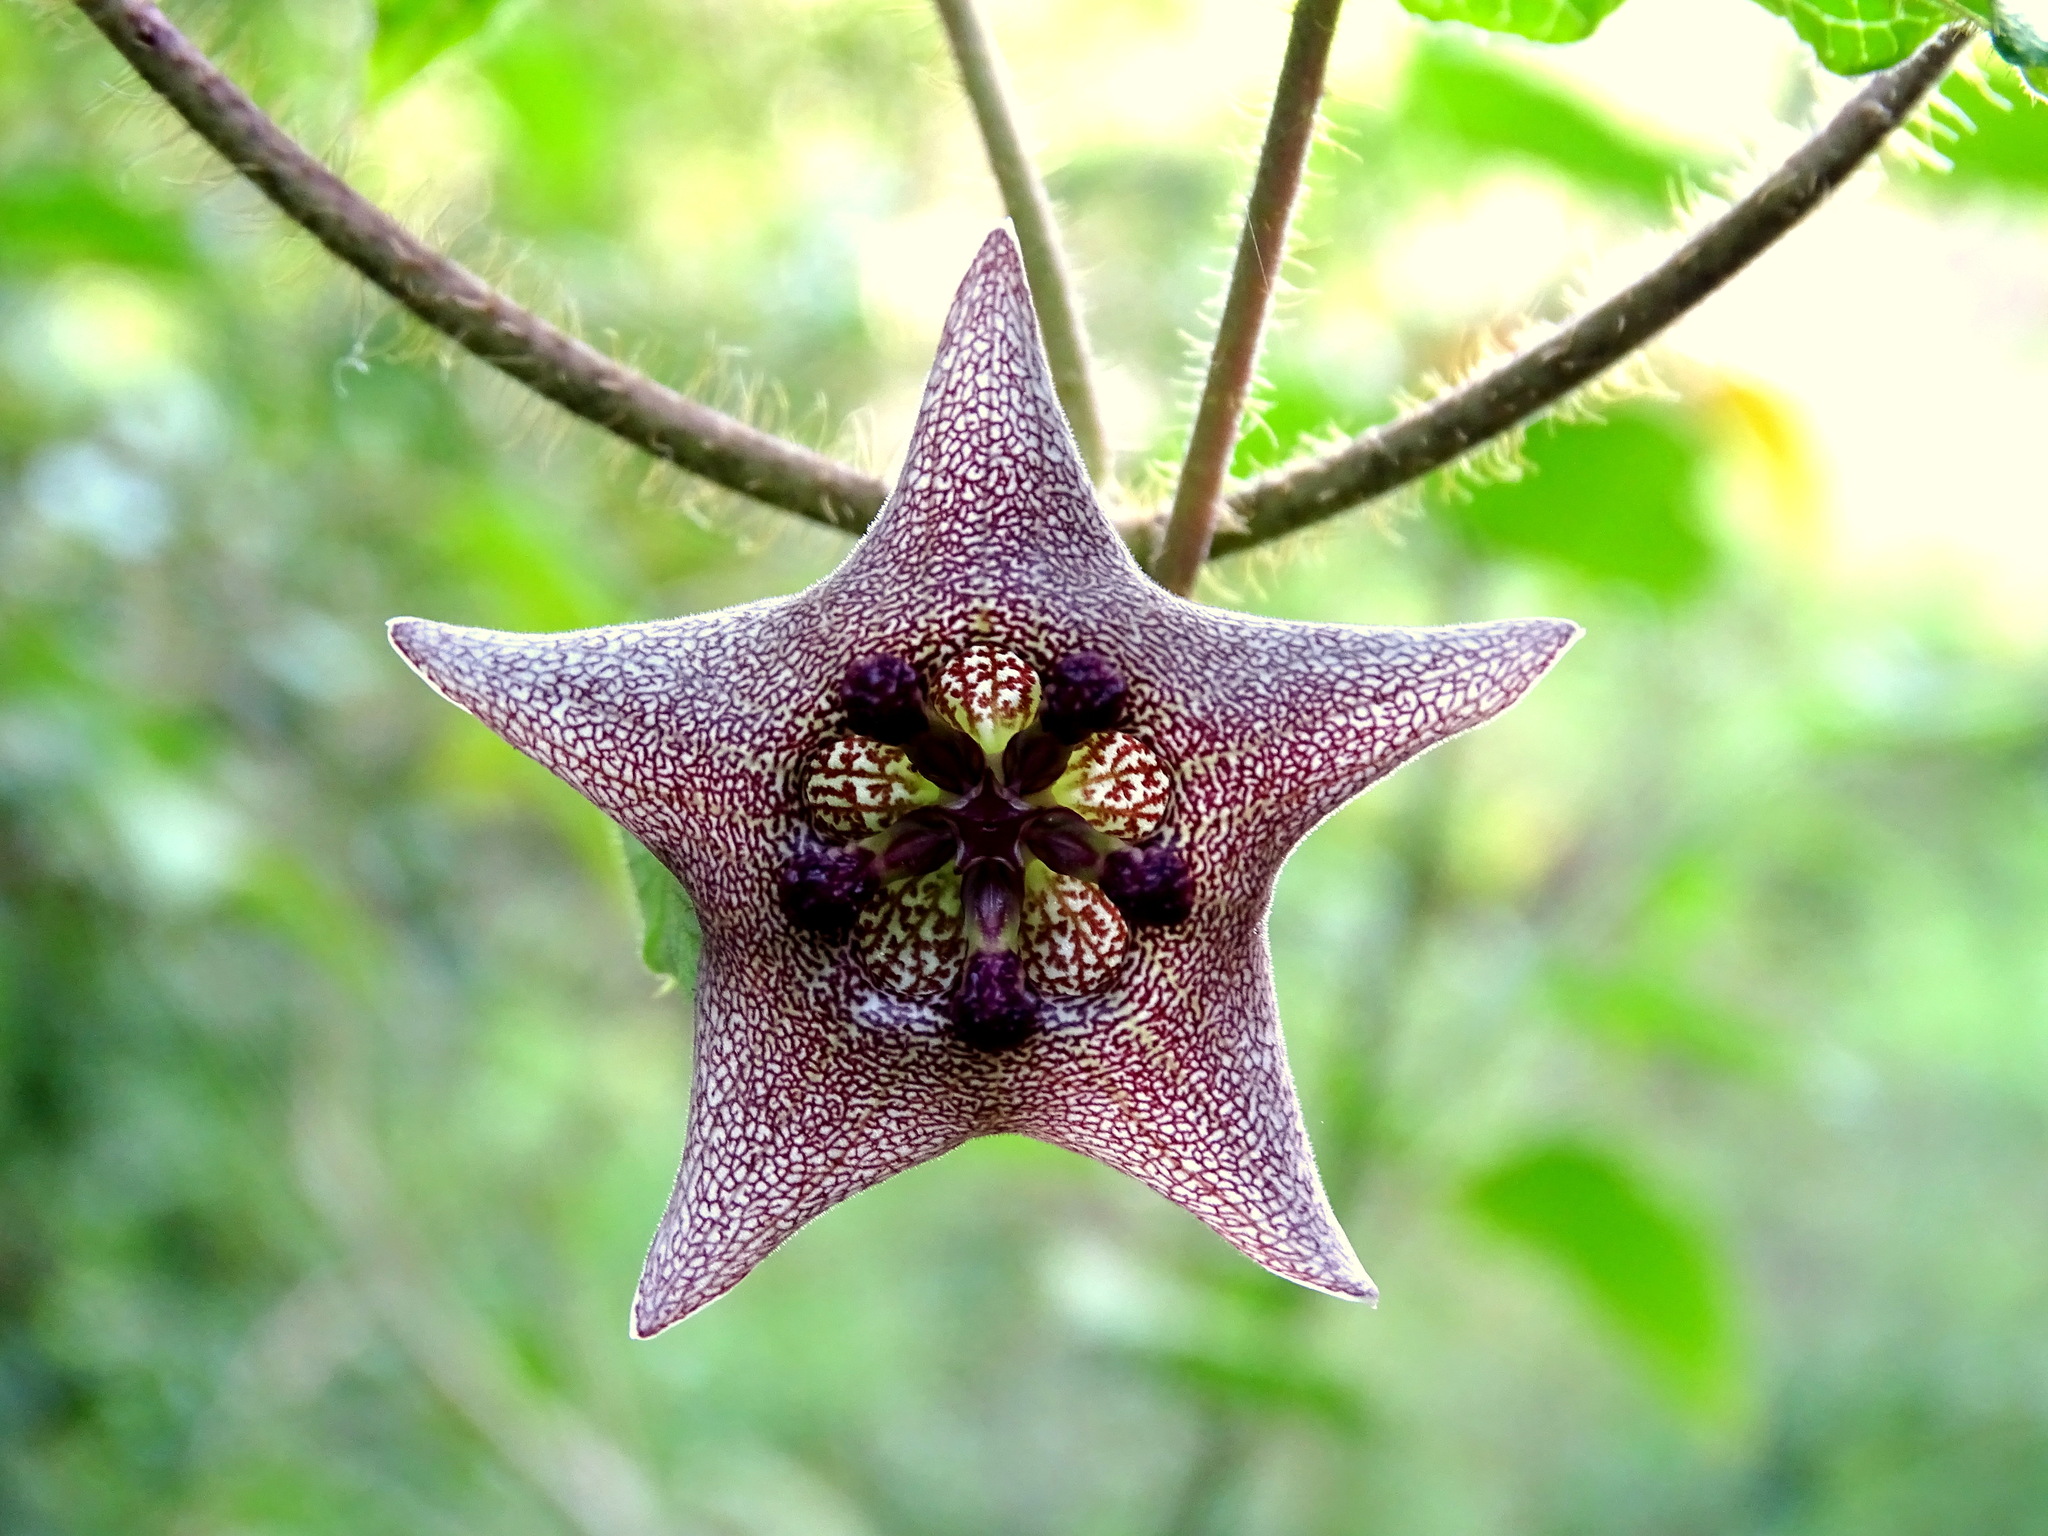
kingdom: Plantae
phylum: Tracheophyta
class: Magnoliopsida
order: Gentianales
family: Apocynaceae
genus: Dictyanthus
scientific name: Dictyanthus yucatanensis
